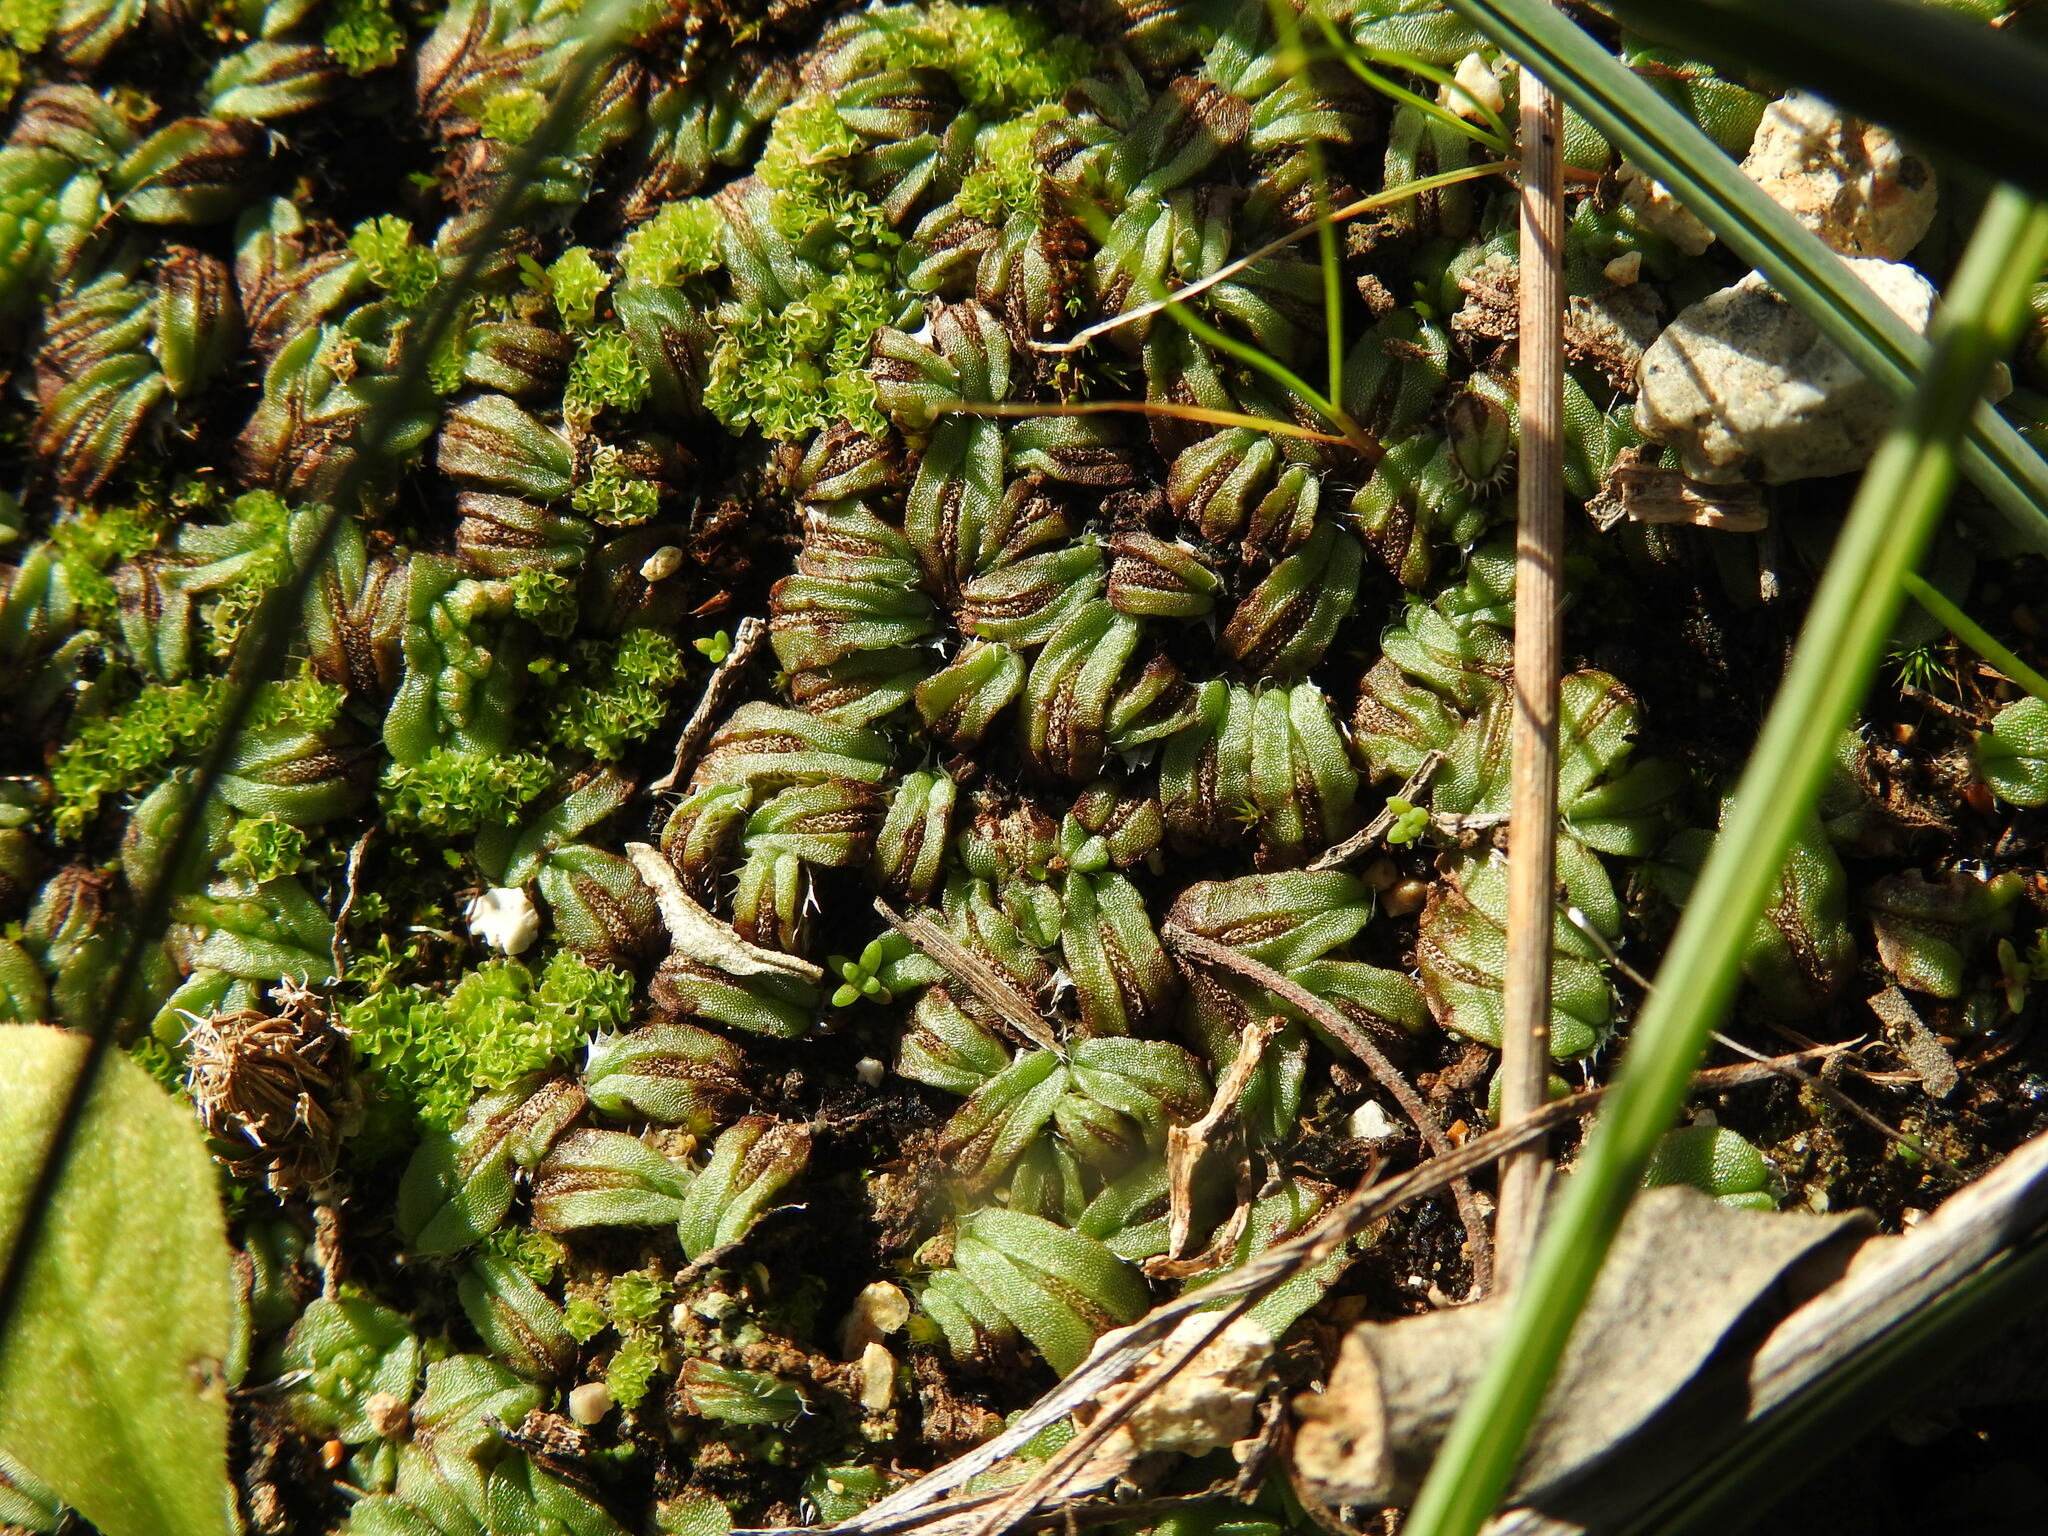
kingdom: Plantae
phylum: Marchantiophyta
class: Marchantiopsida
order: Marchantiales
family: Ricciaceae
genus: Oxymitra
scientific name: Oxymitra incrassata
